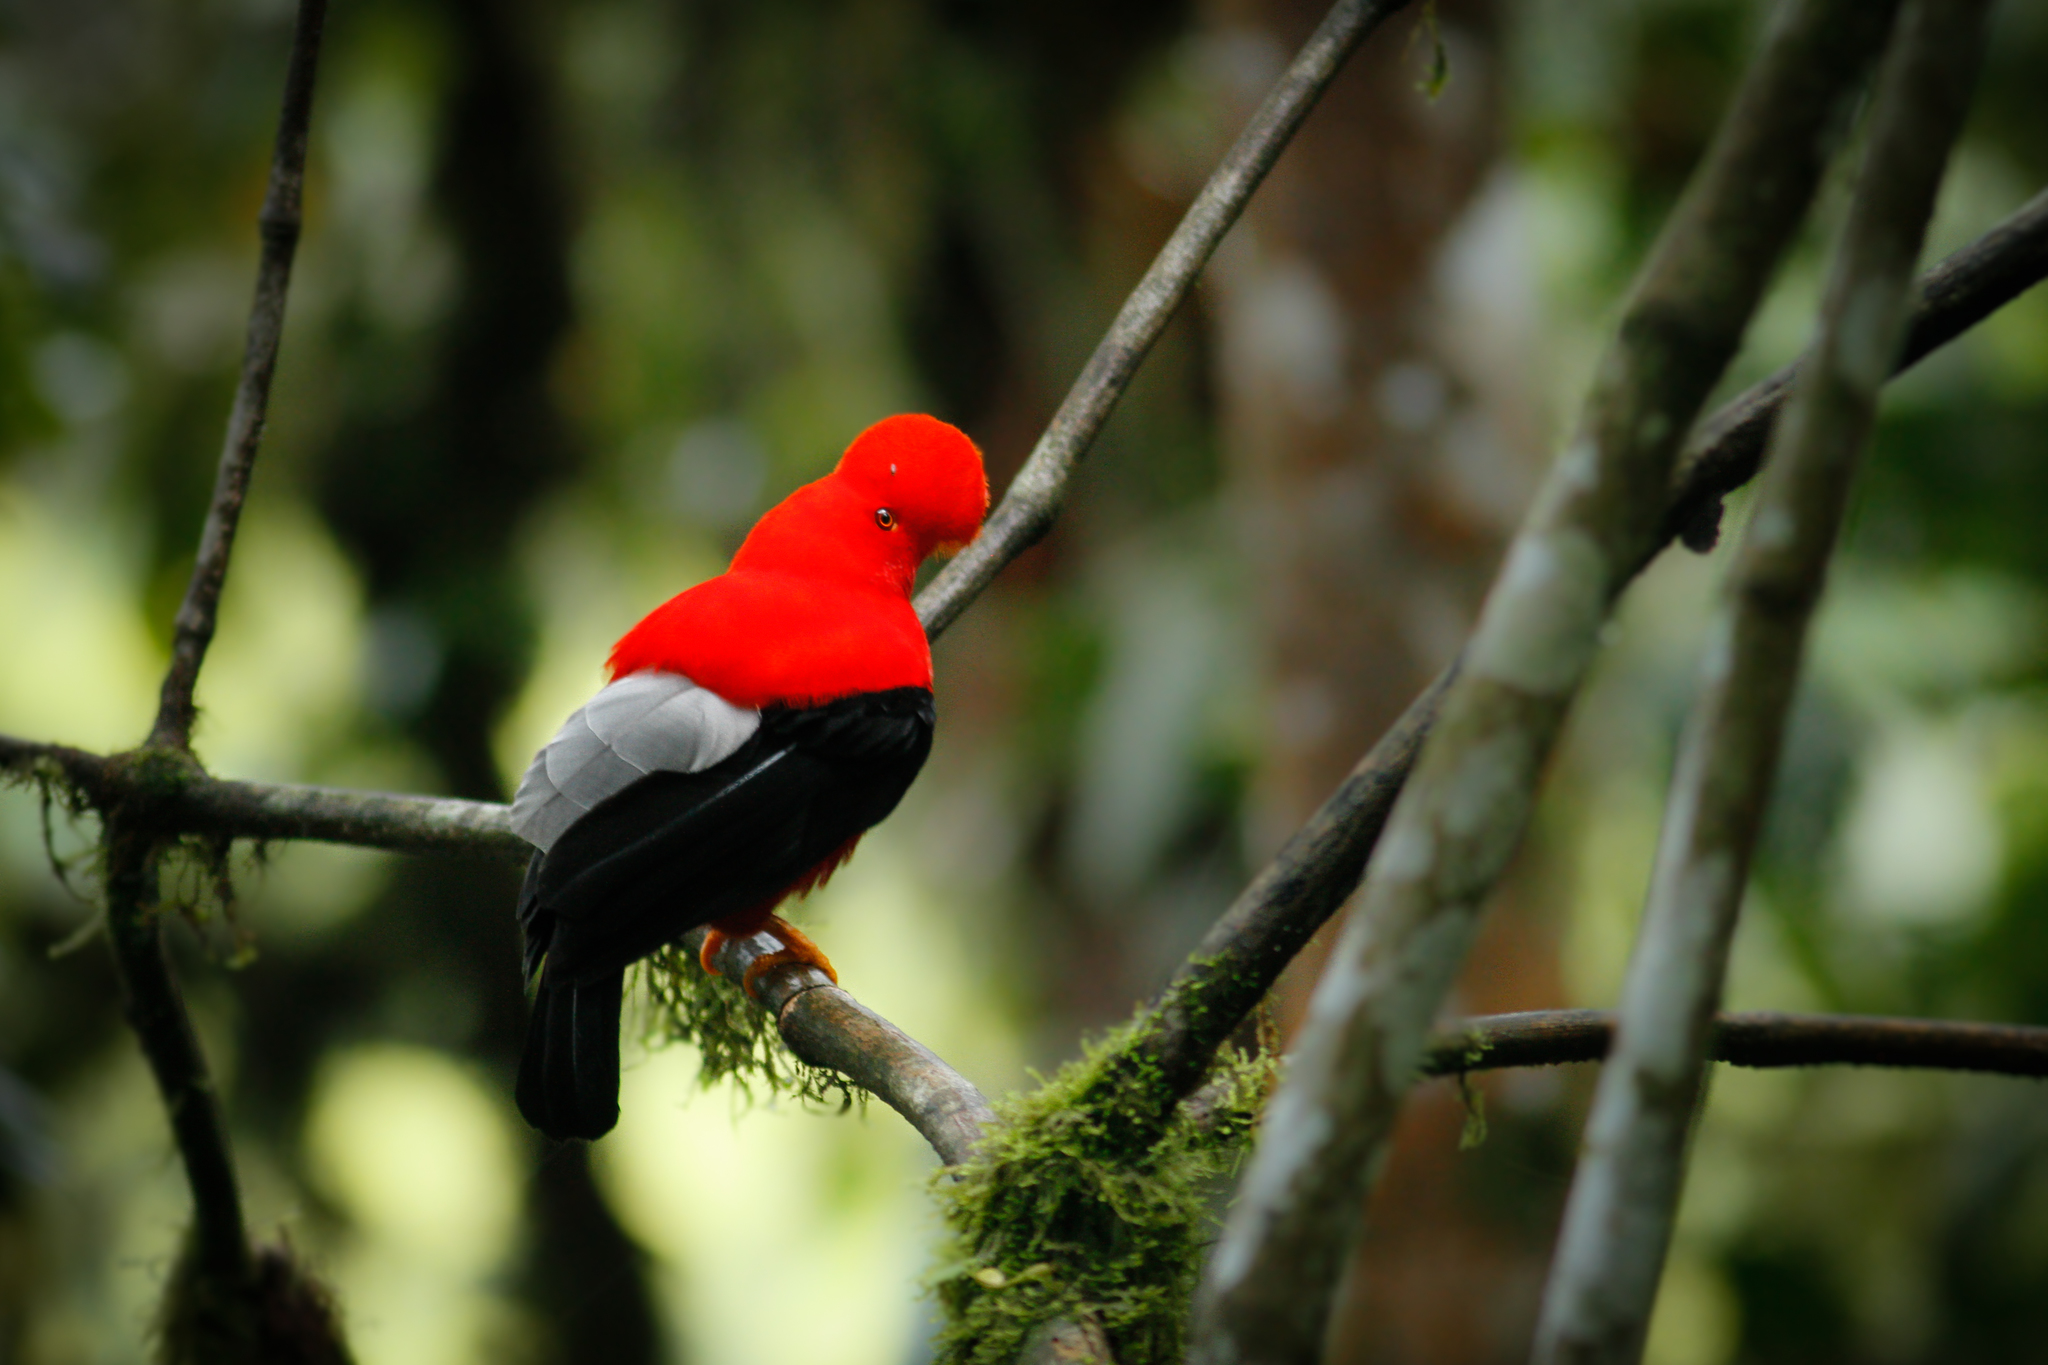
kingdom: Animalia
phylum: Chordata
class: Aves
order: Passeriformes
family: Cotingidae
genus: Rupicola
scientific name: Rupicola peruvianus
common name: Andean cock-of-the-rock
